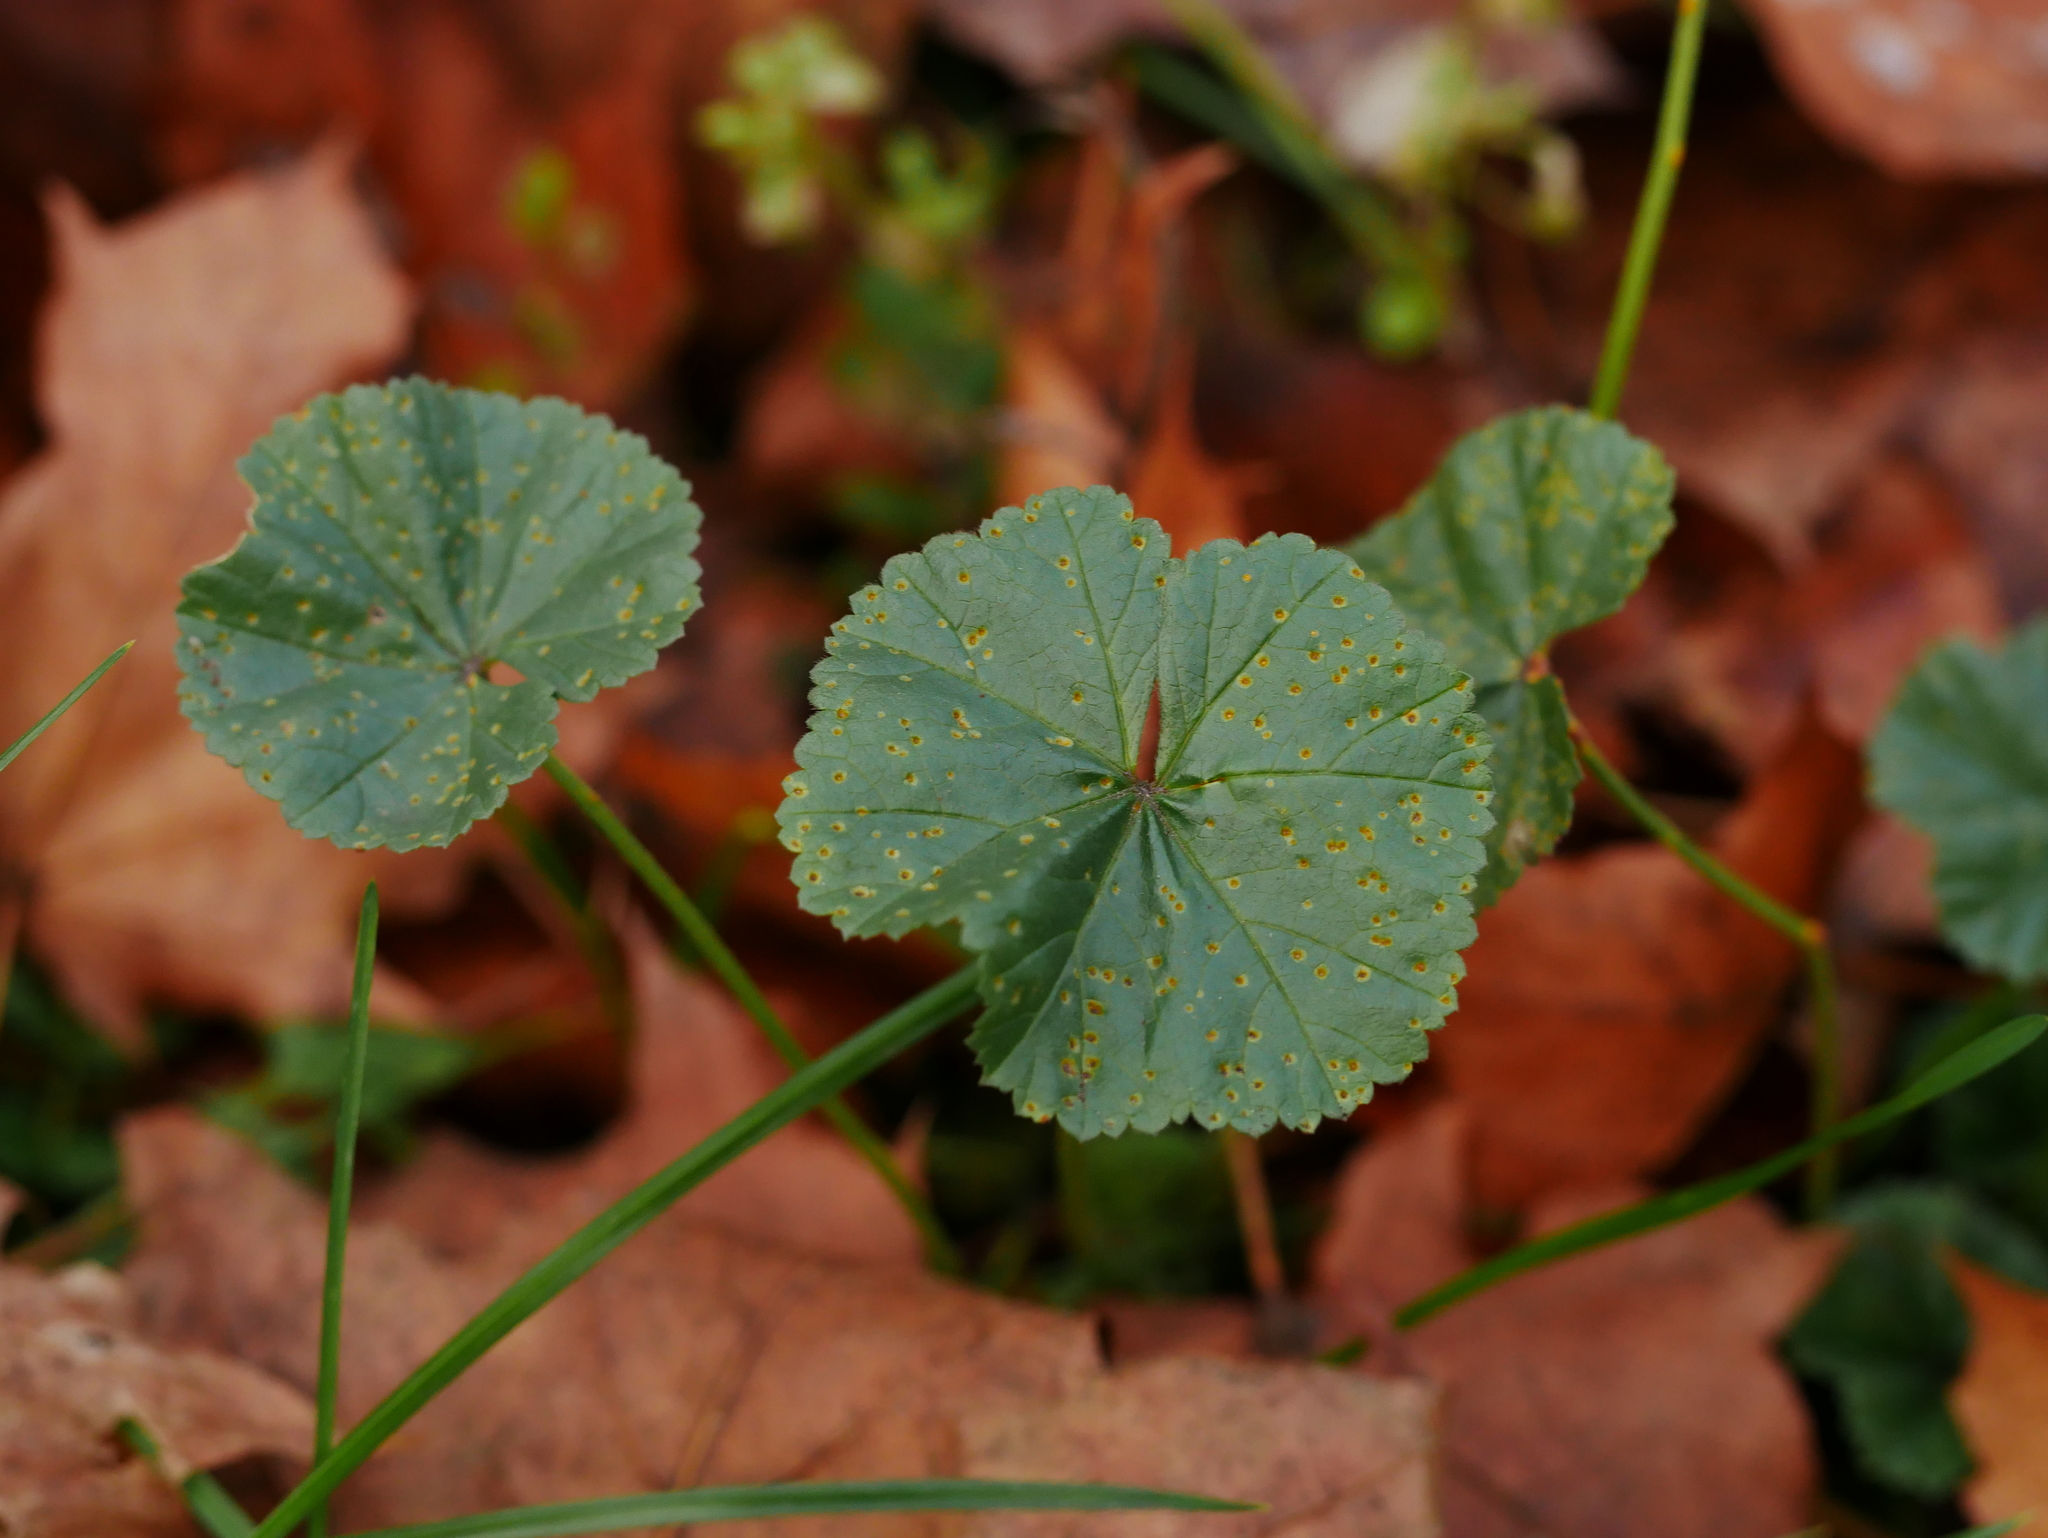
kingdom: Fungi
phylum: Basidiomycota
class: Pucciniomycetes
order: Pucciniales
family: Pucciniaceae
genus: Puccinia
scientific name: Puccinia malvacearum
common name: Hollyhock rust
